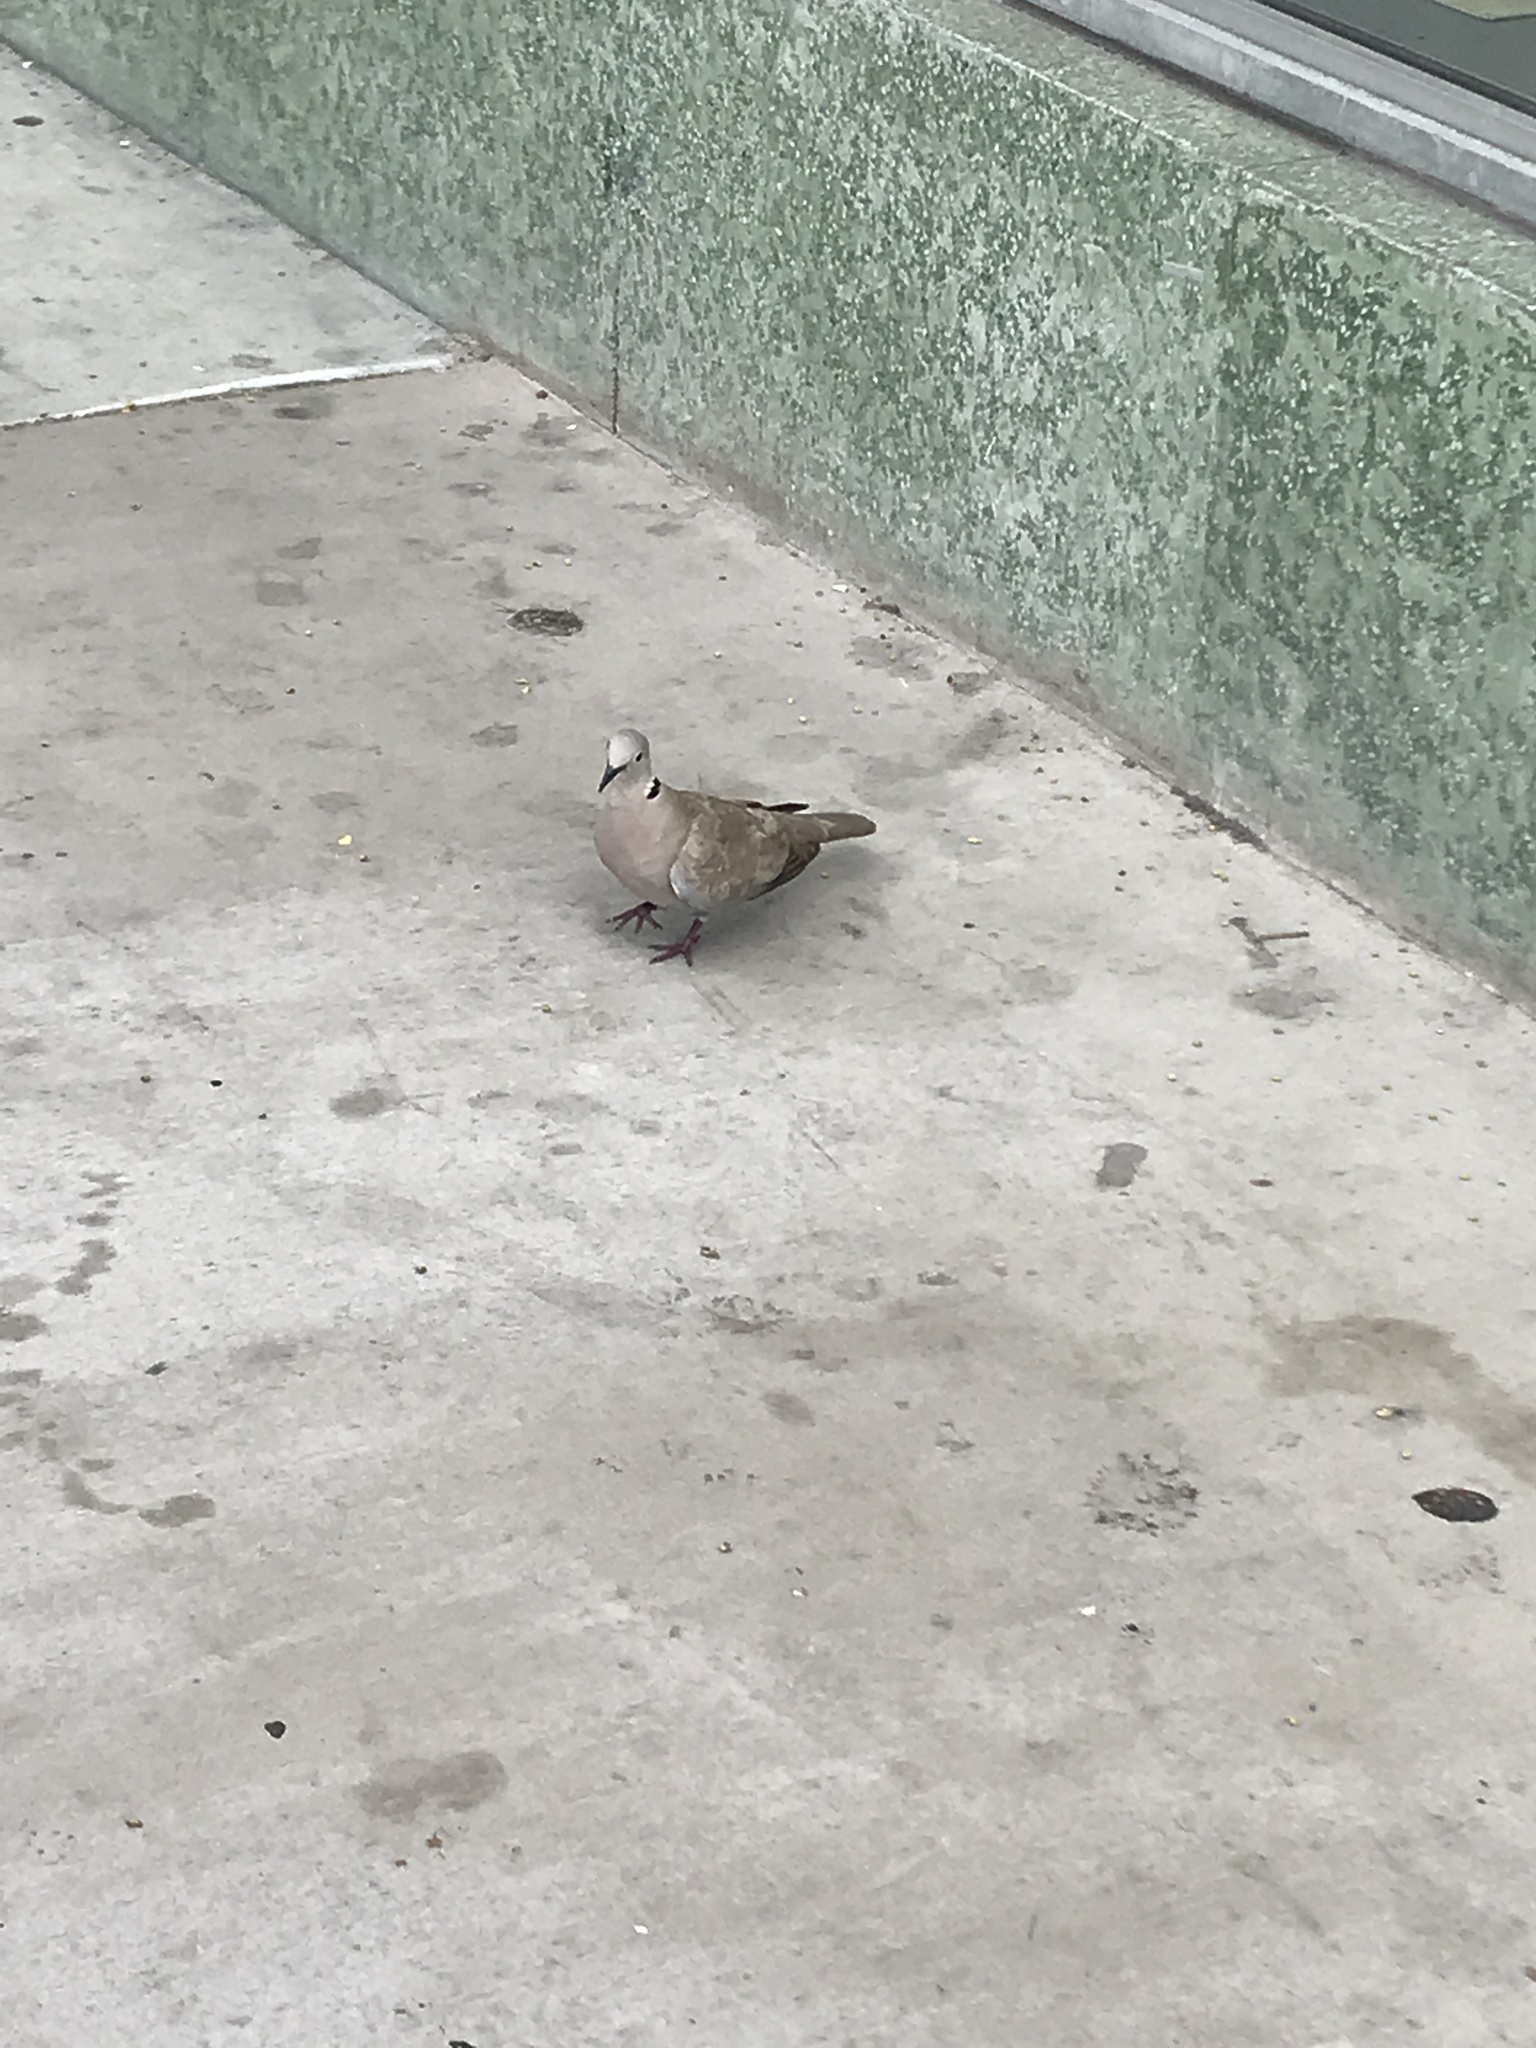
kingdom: Animalia
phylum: Chordata
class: Aves
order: Columbiformes
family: Columbidae
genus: Streptopelia
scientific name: Streptopelia decaocto
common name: Eurasian collared dove
